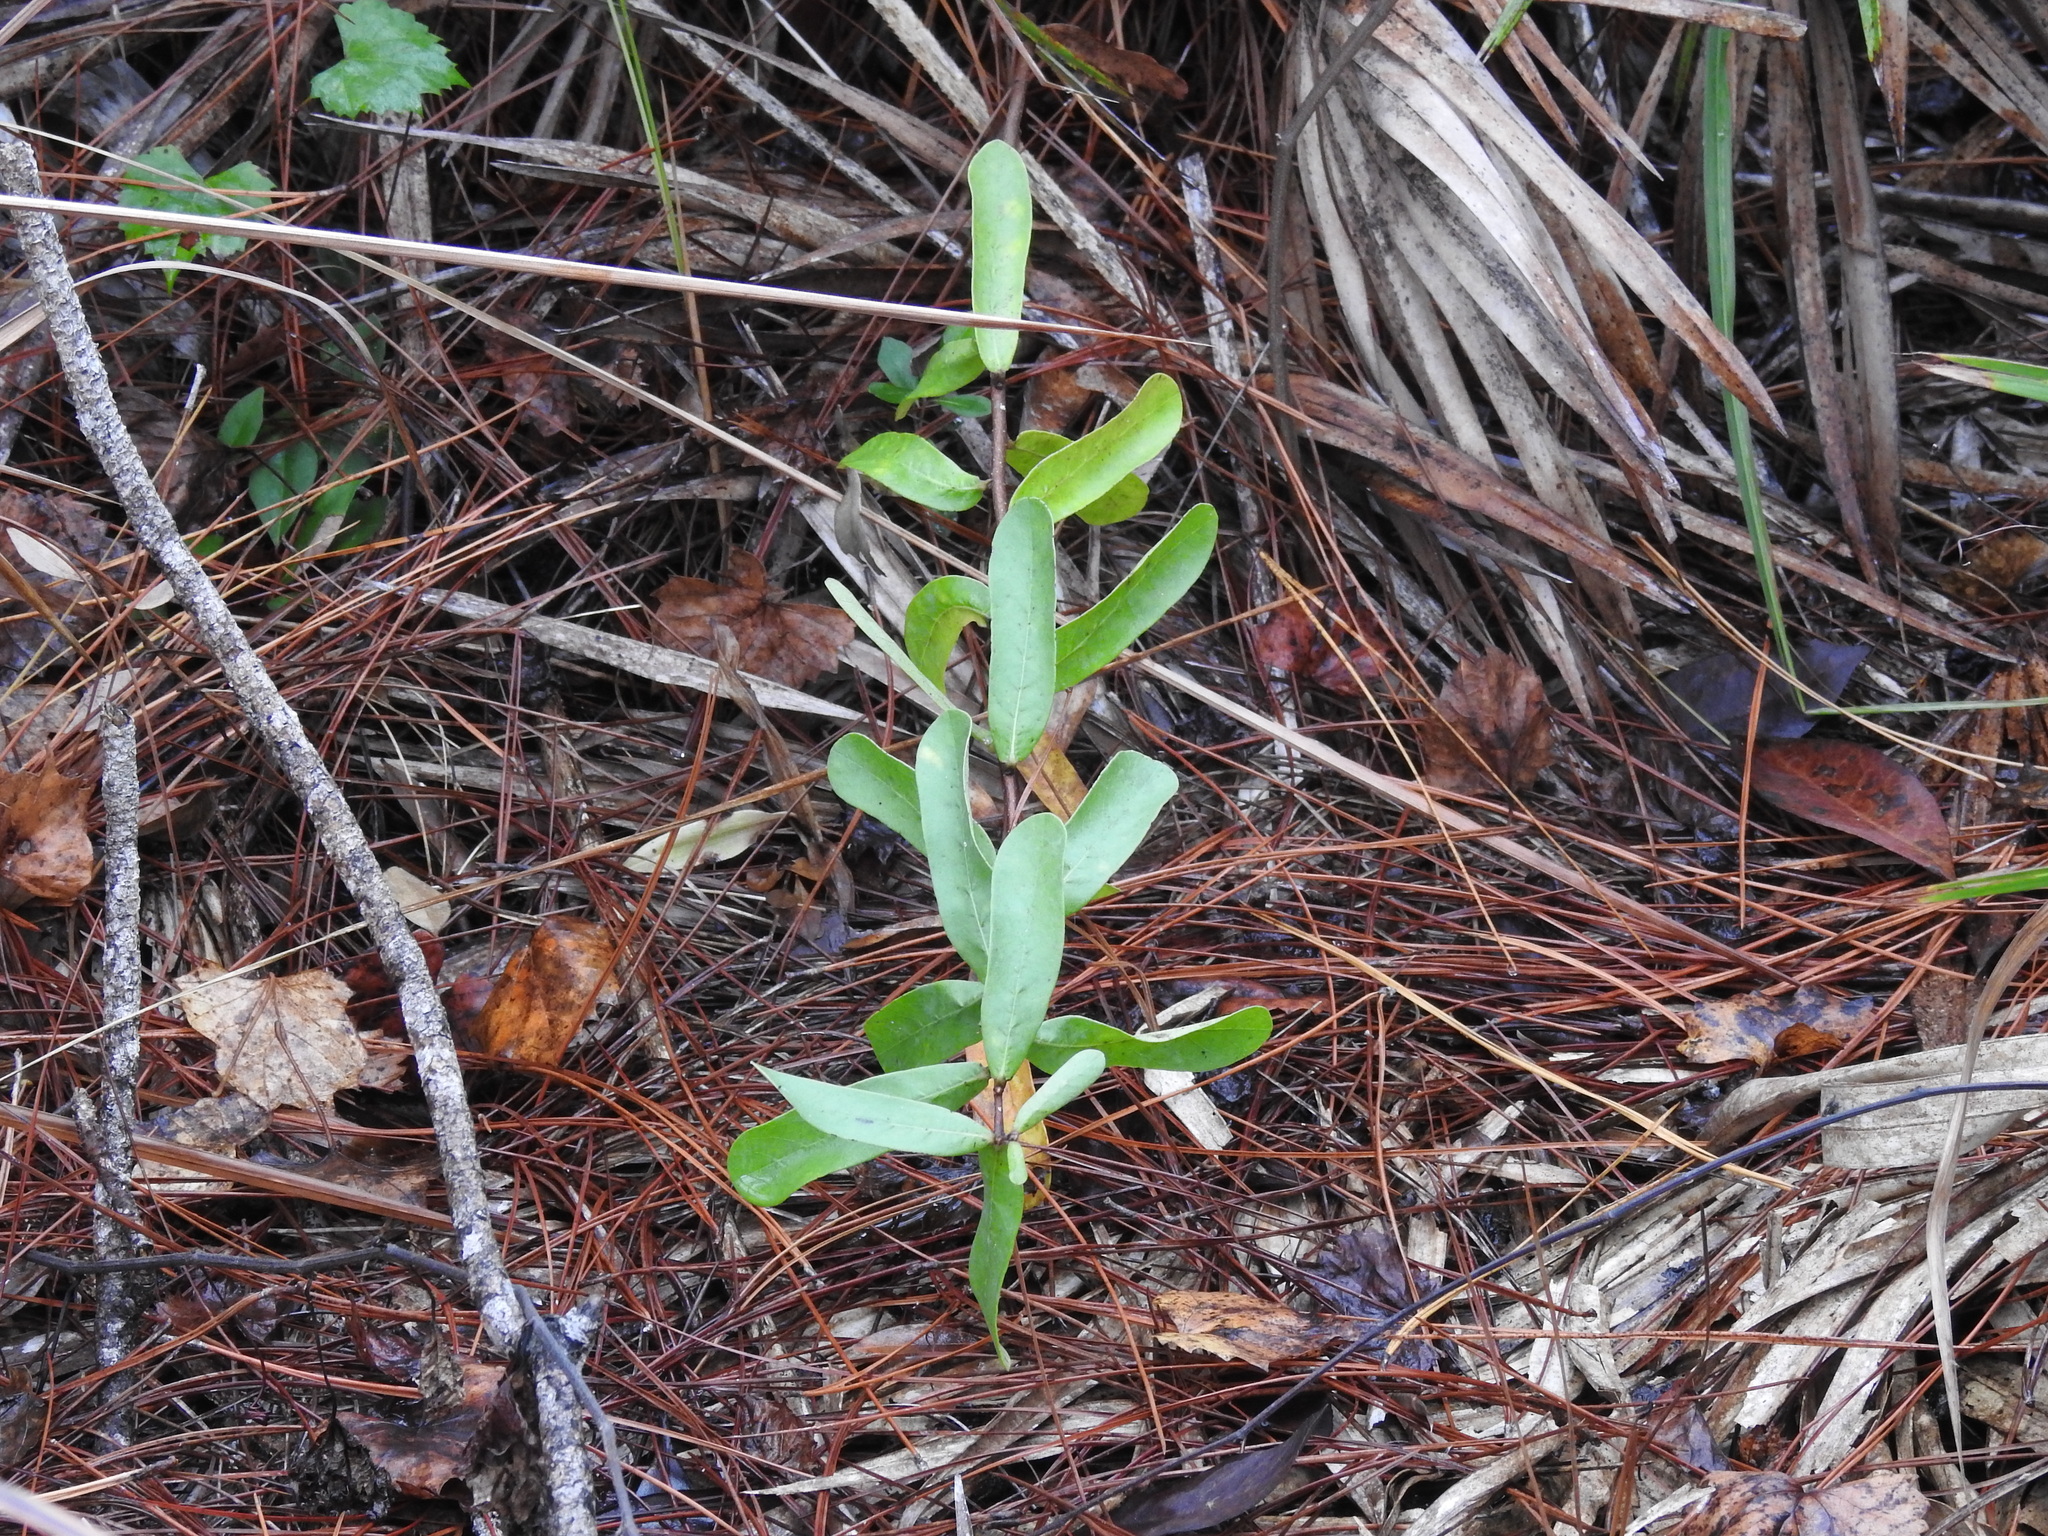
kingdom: Plantae
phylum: Tracheophyta
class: Magnoliopsida
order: Magnoliales
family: Annonaceae
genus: Asimina
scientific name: Asimina reticulata
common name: Flag pawpaw
